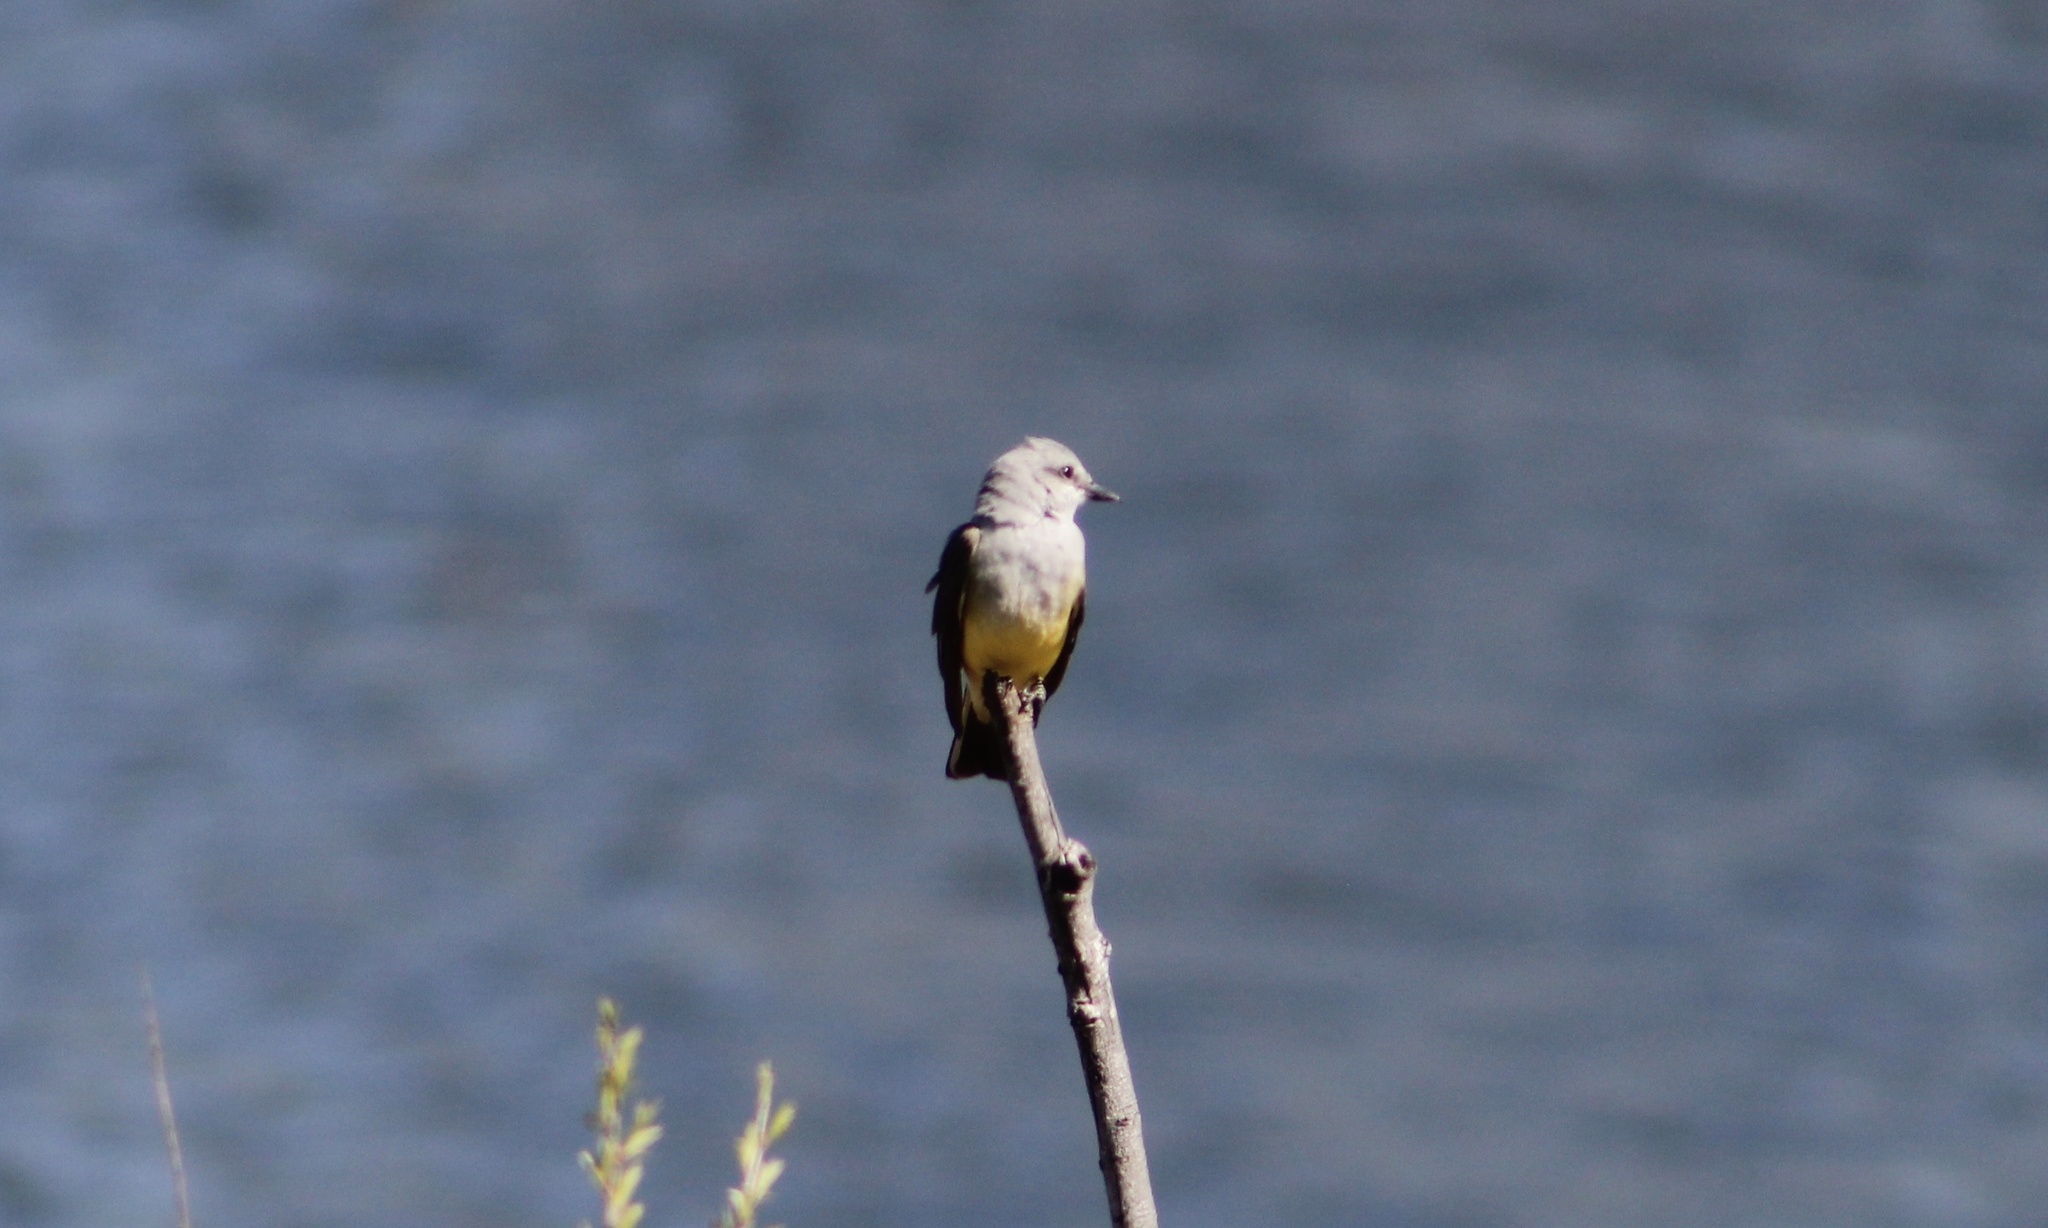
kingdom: Animalia
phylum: Chordata
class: Aves
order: Passeriformes
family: Tyrannidae
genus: Tyrannus
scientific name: Tyrannus verticalis
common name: Western kingbird
